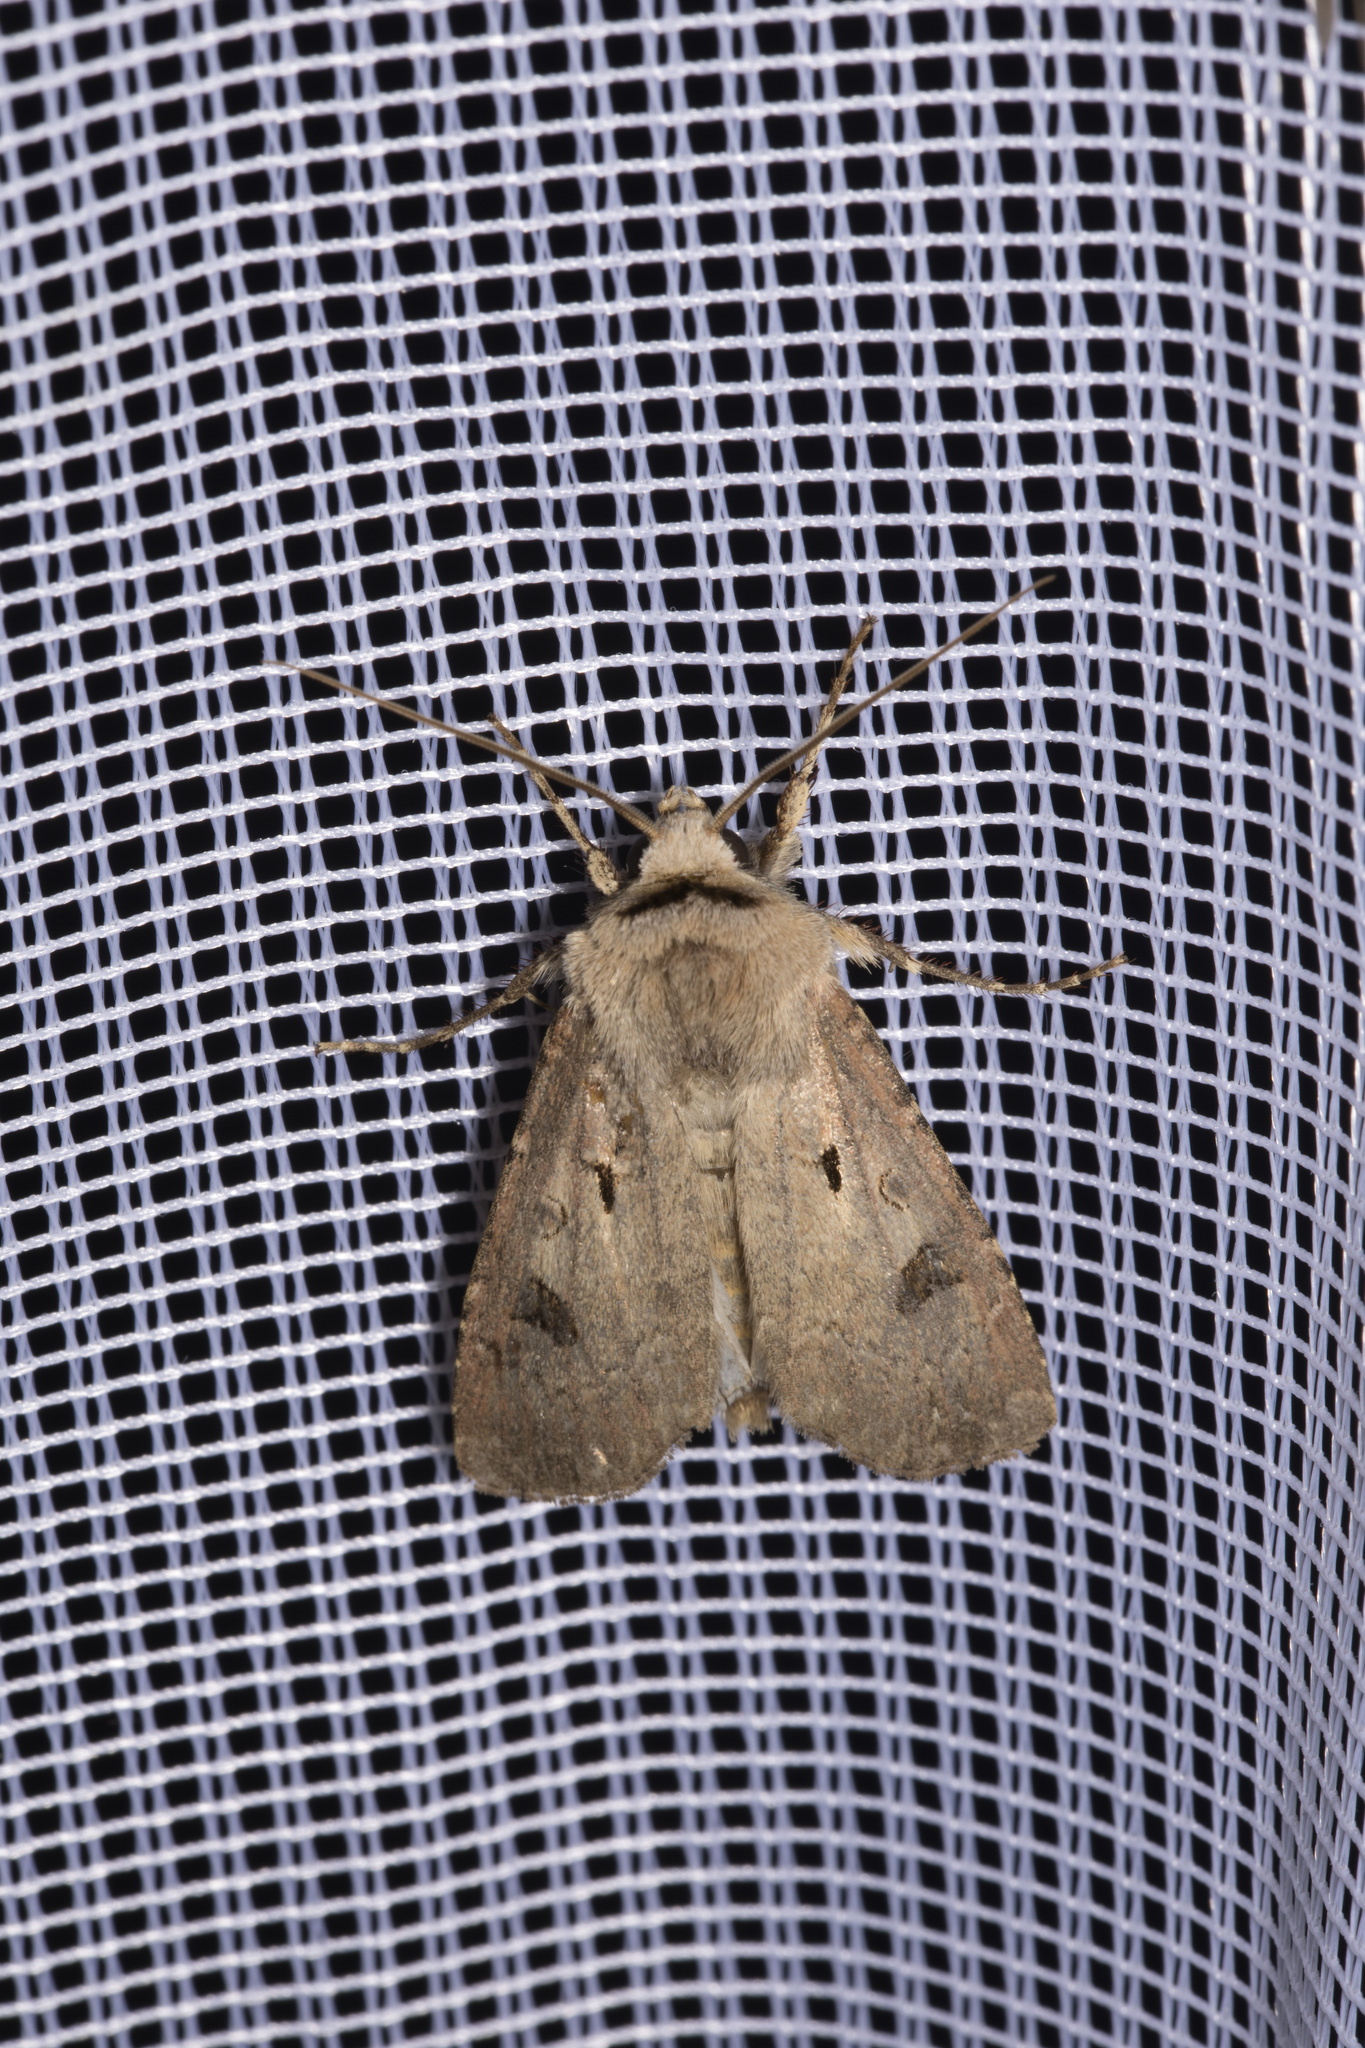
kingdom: Animalia
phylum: Arthropoda
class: Insecta
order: Lepidoptera
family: Noctuidae
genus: Agrotis
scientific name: Agrotis exclamationis
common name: Heart and dart
